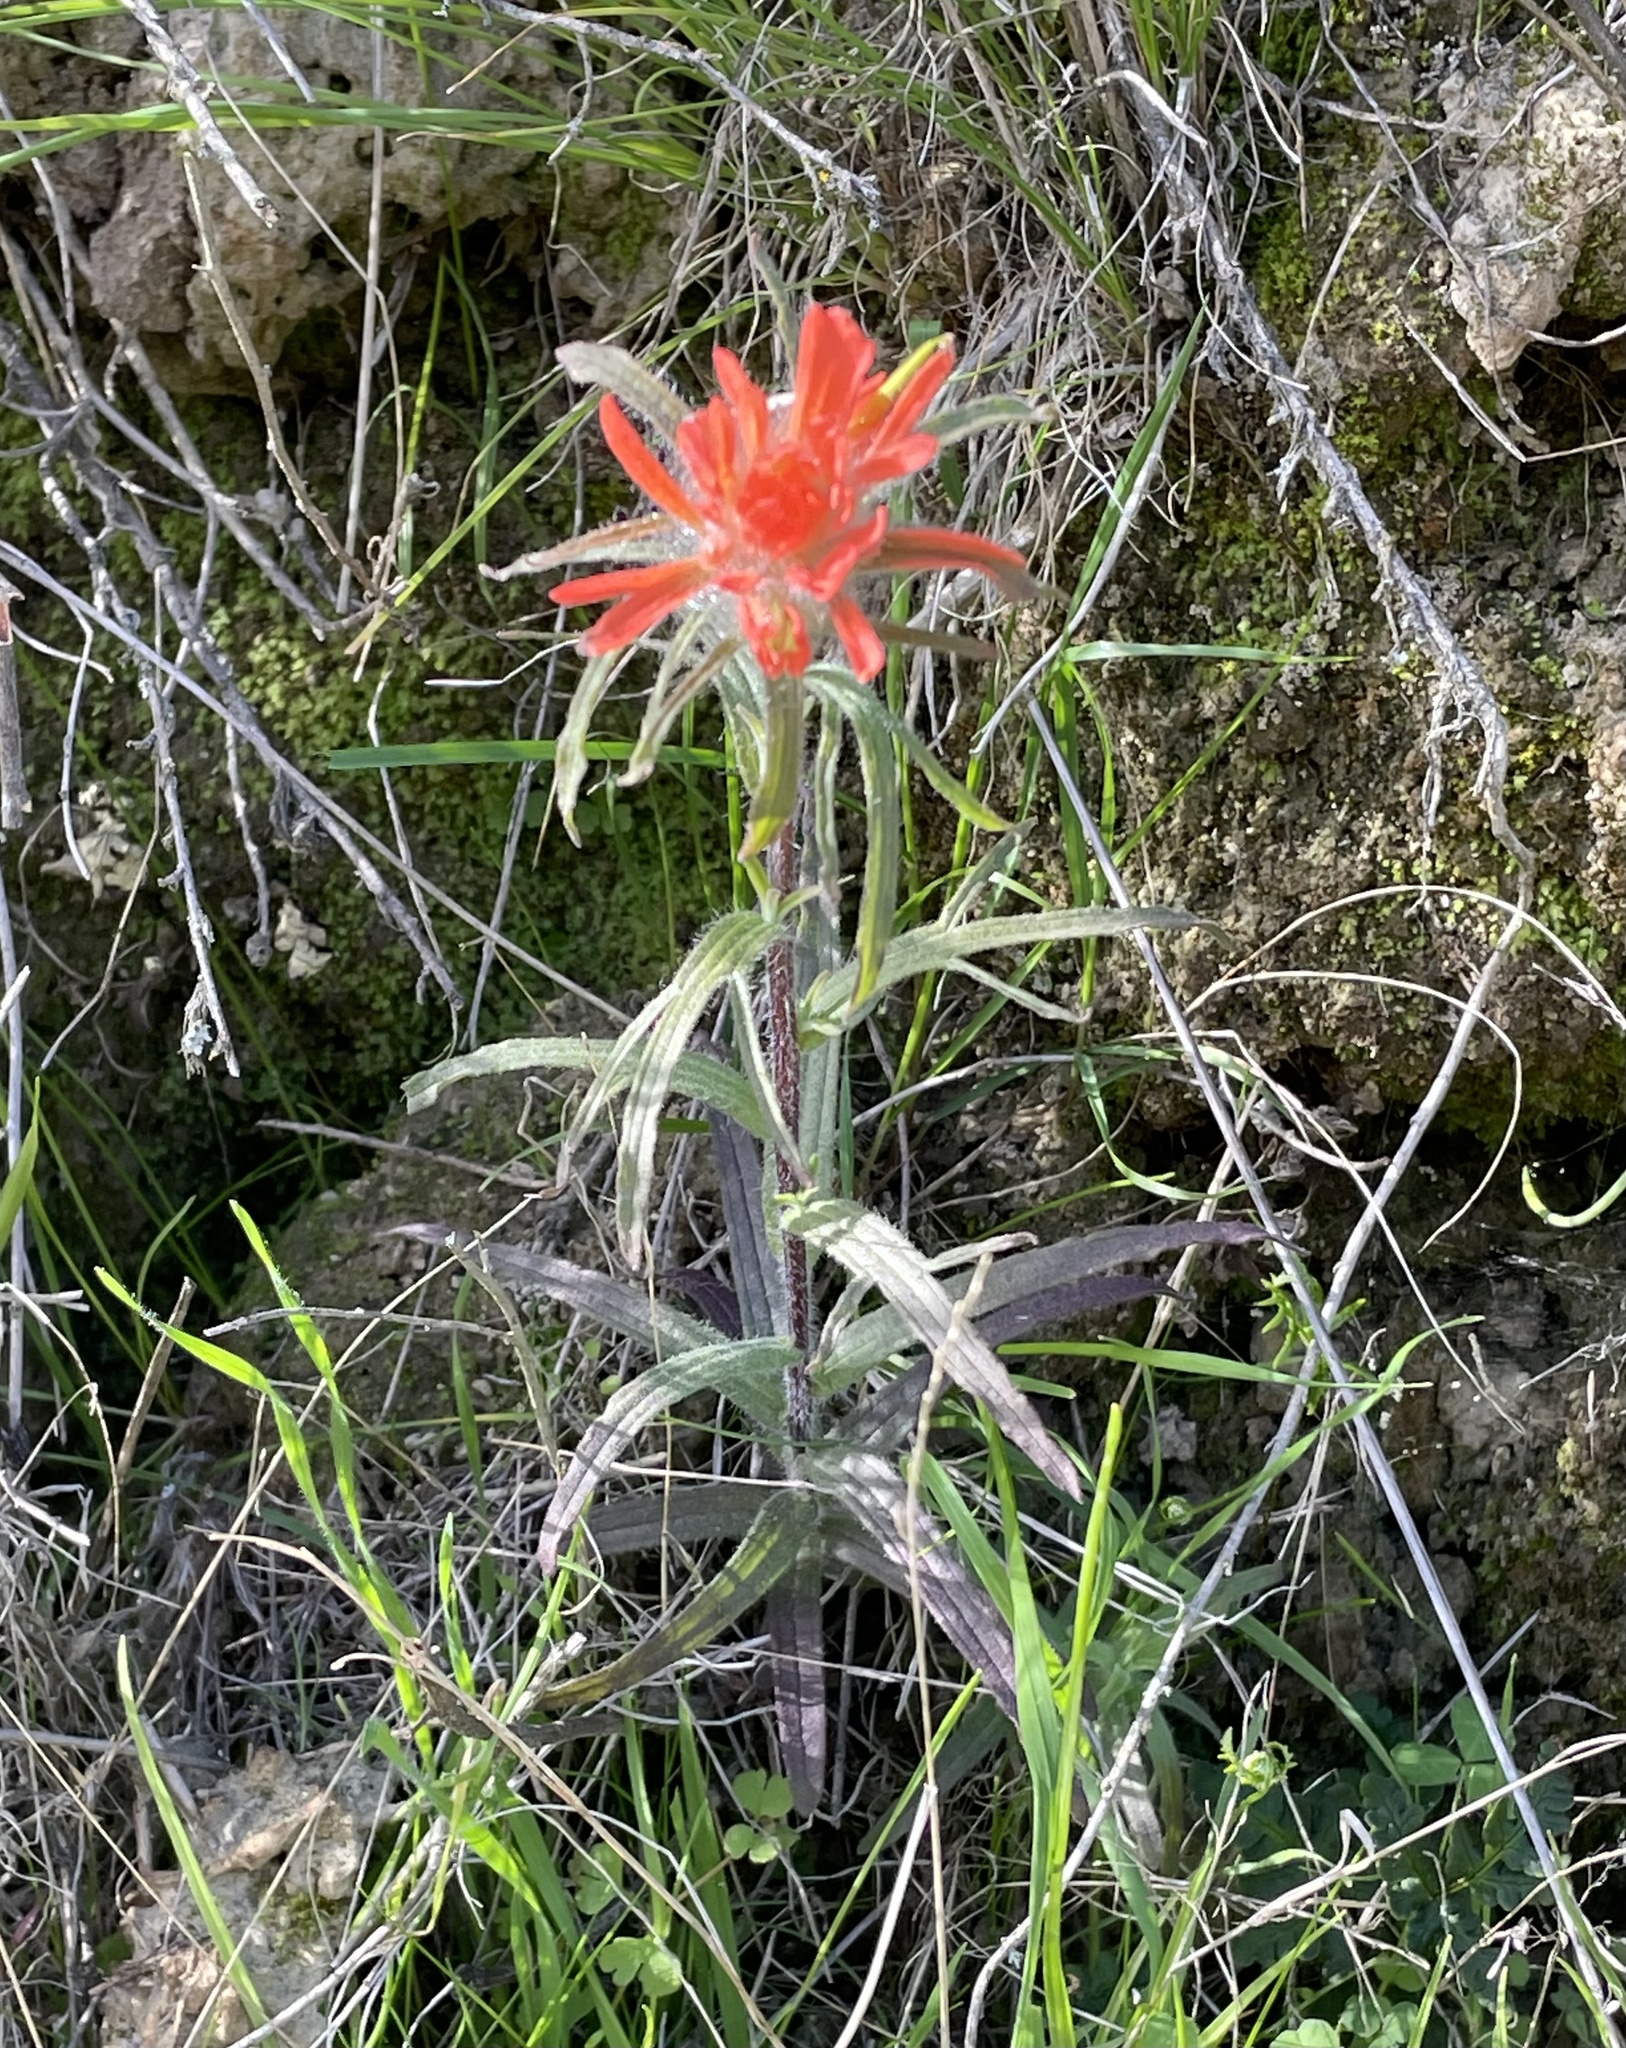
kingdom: Plantae
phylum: Tracheophyta
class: Magnoliopsida
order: Lamiales
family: Orobanchaceae
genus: Castilleja
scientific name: Castilleja affinis
